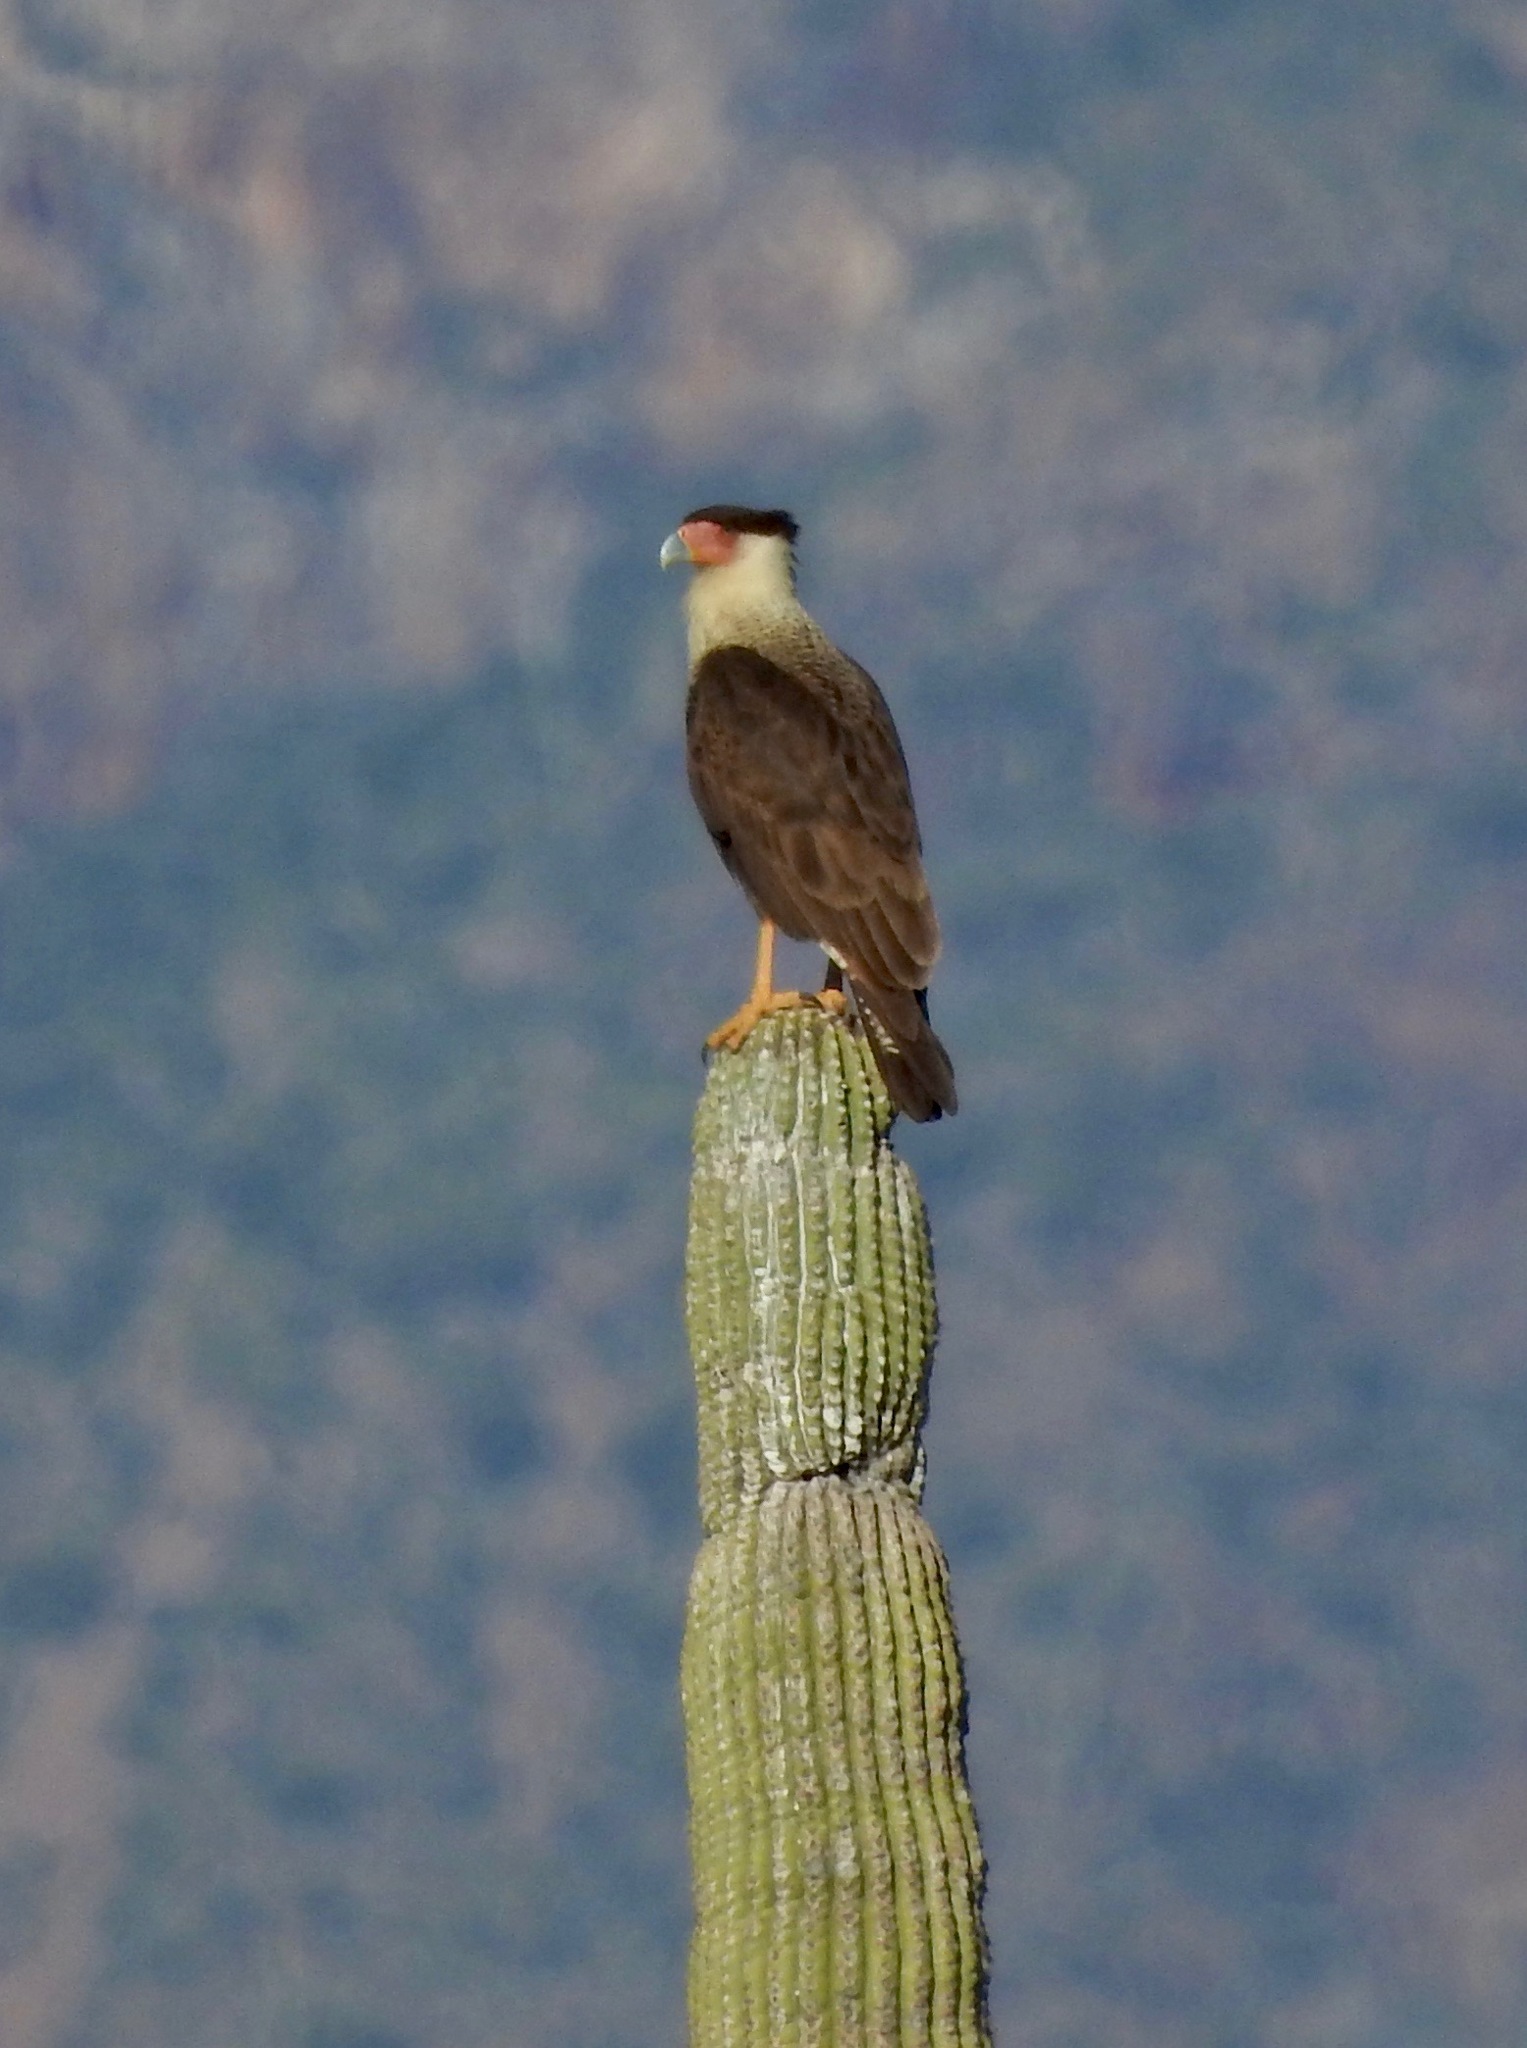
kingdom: Animalia
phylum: Chordata
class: Aves
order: Falconiformes
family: Falconidae
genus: Caracara
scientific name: Caracara plancus
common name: Southern caracara
